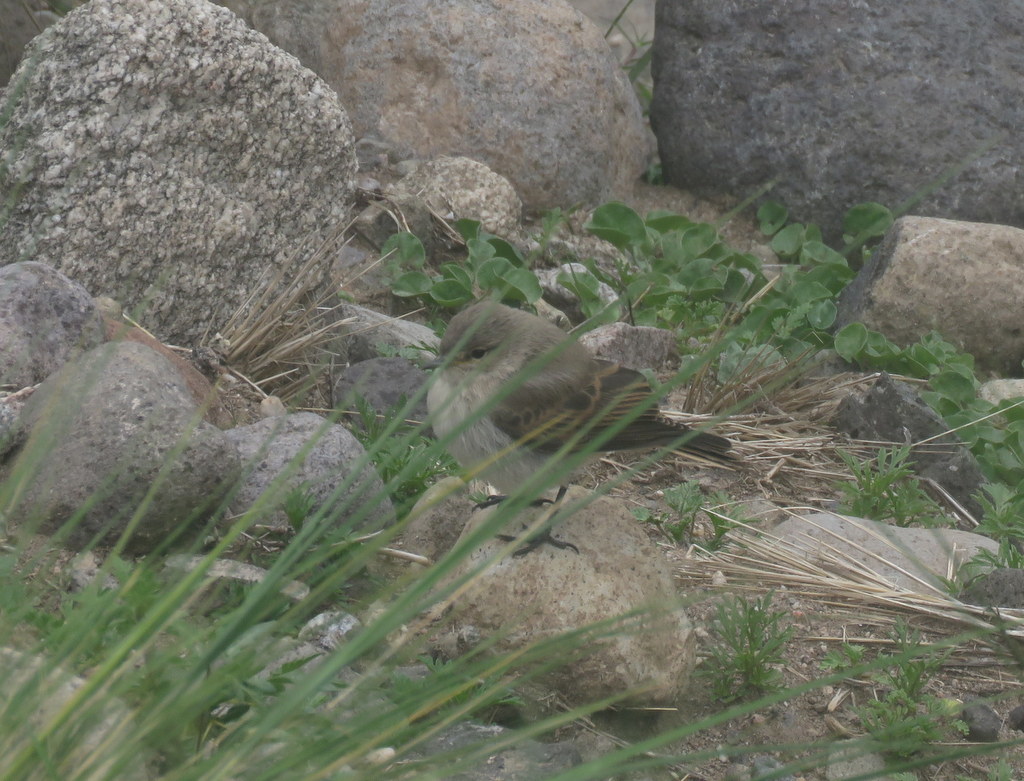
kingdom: Animalia
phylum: Chordata
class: Aves
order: Passeriformes
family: Tyrannidae
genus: Muscisaxicola
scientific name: Muscisaxicola maculirostris
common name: Spot-billed ground tyrant
